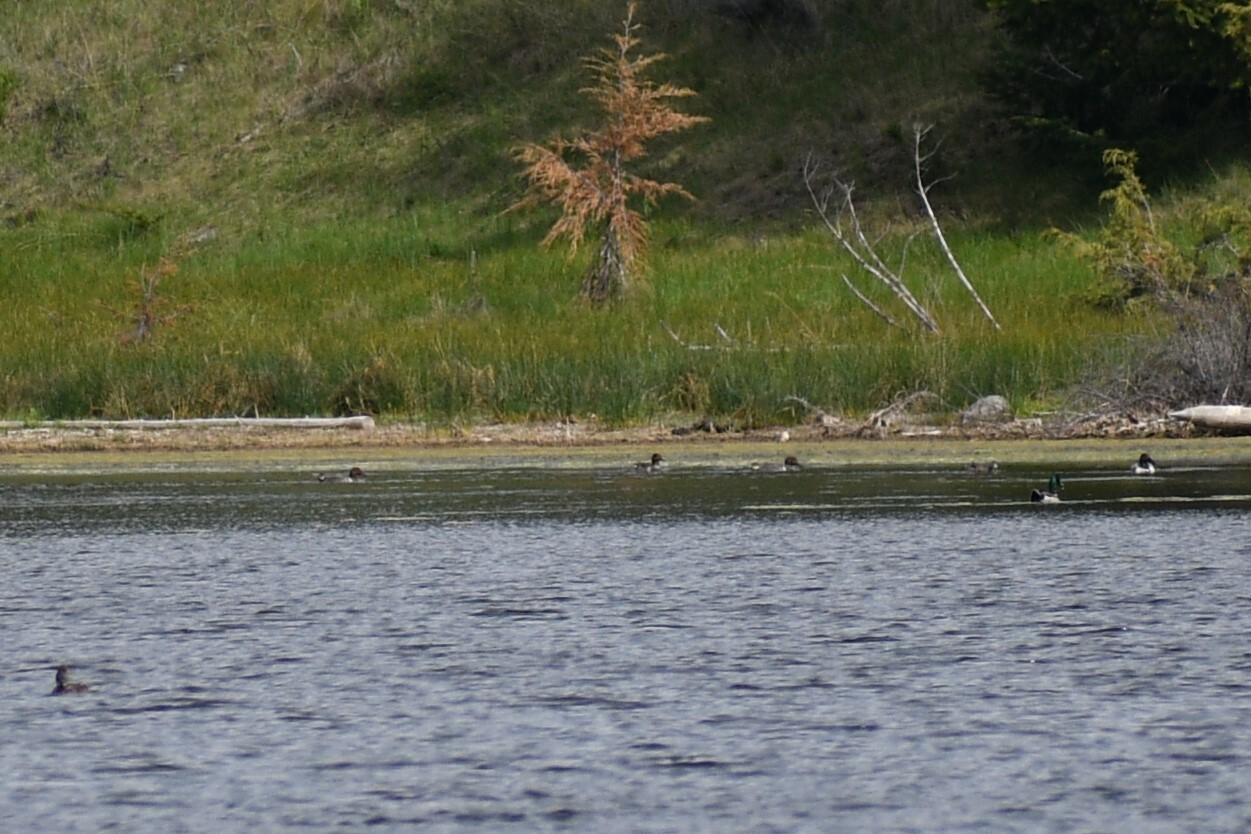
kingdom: Animalia
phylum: Chordata
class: Aves
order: Anseriformes
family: Anatidae
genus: Anas
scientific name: Anas crecca
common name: Eurasian teal
